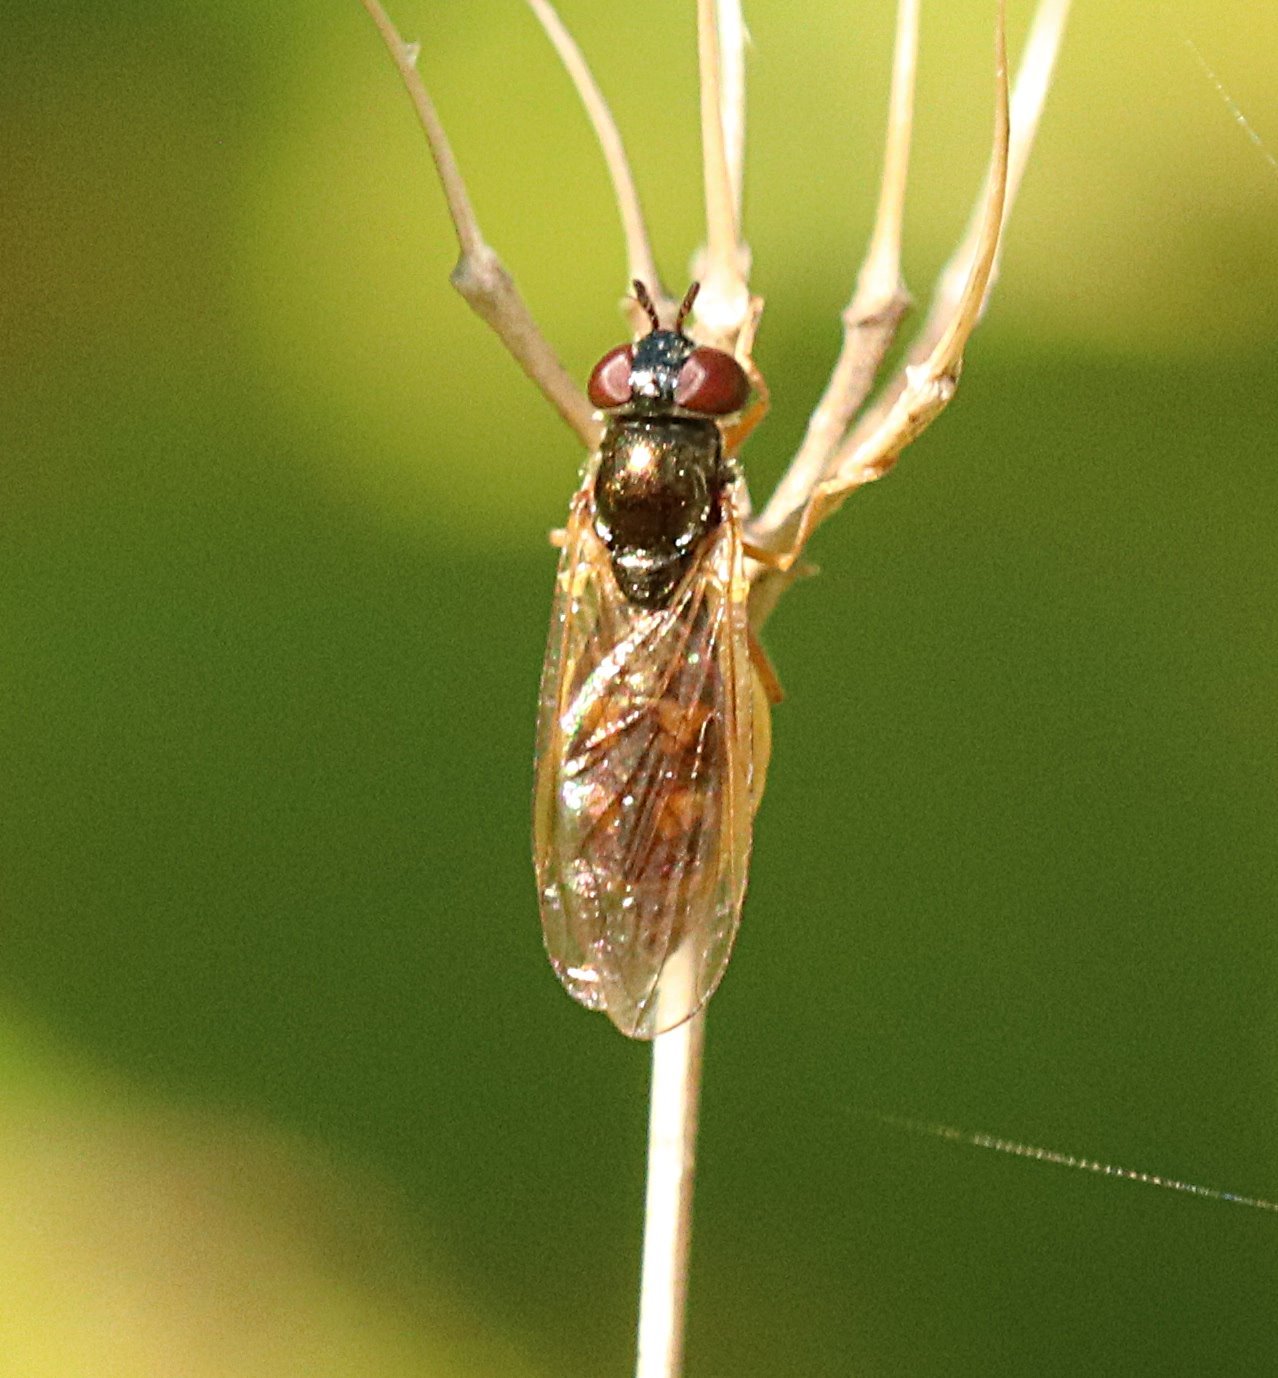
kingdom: Animalia
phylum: Arthropoda
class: Insecta
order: Diptera
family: Syrphidae
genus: Melanostoma
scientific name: Melanostoma mellina
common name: Hover fly
